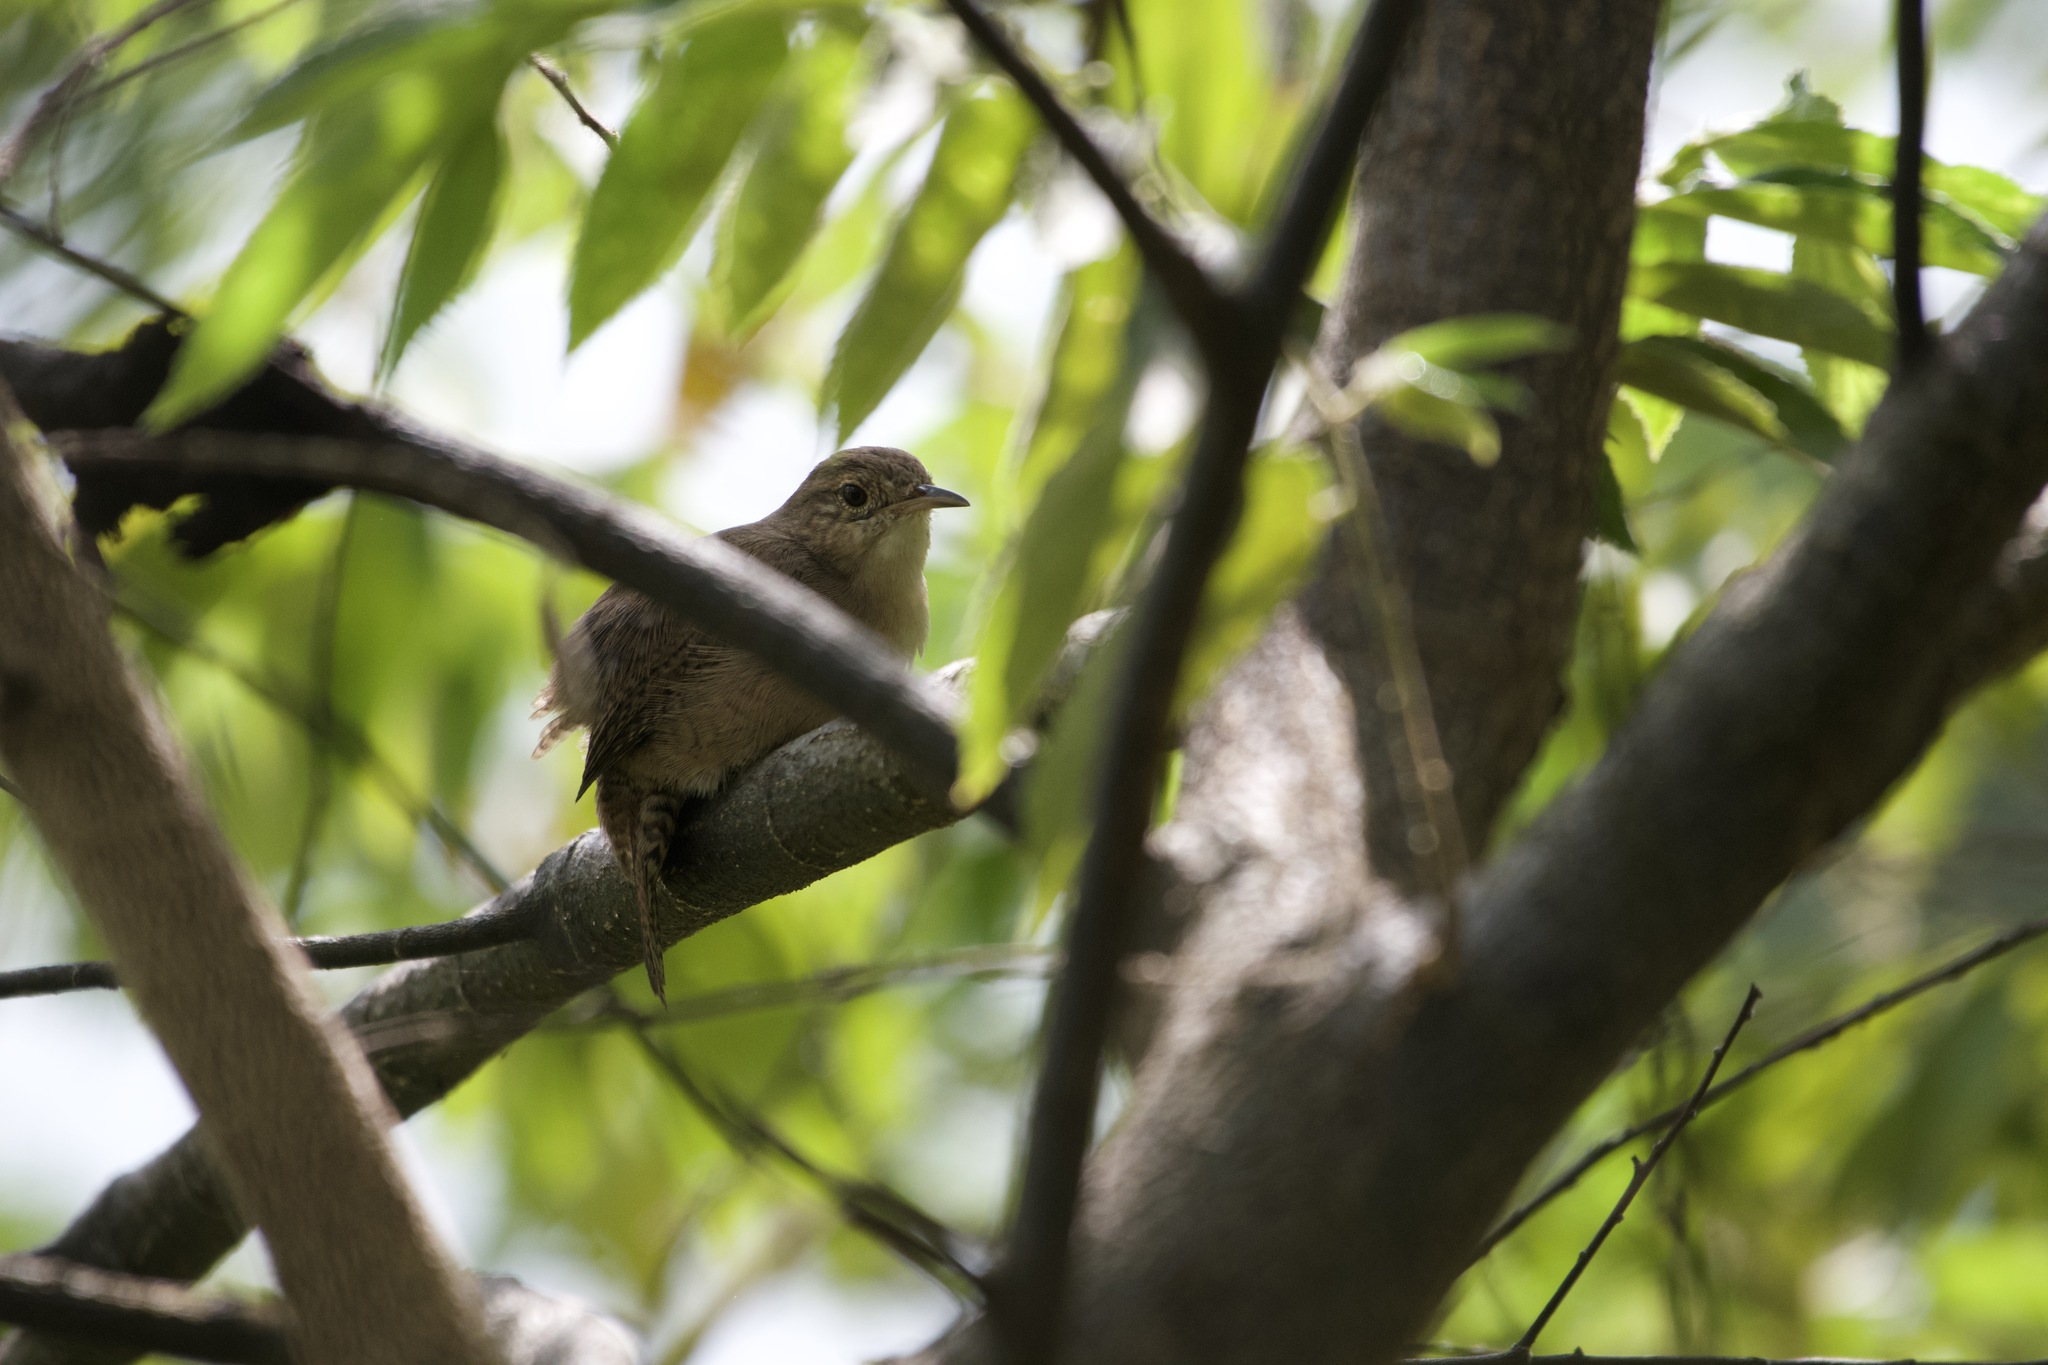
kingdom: Animalia
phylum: Chordata
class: Aves
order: Passeriformes
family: Troglodytidae
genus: Troglodytes
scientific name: Troglodytes aedon
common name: House wren
